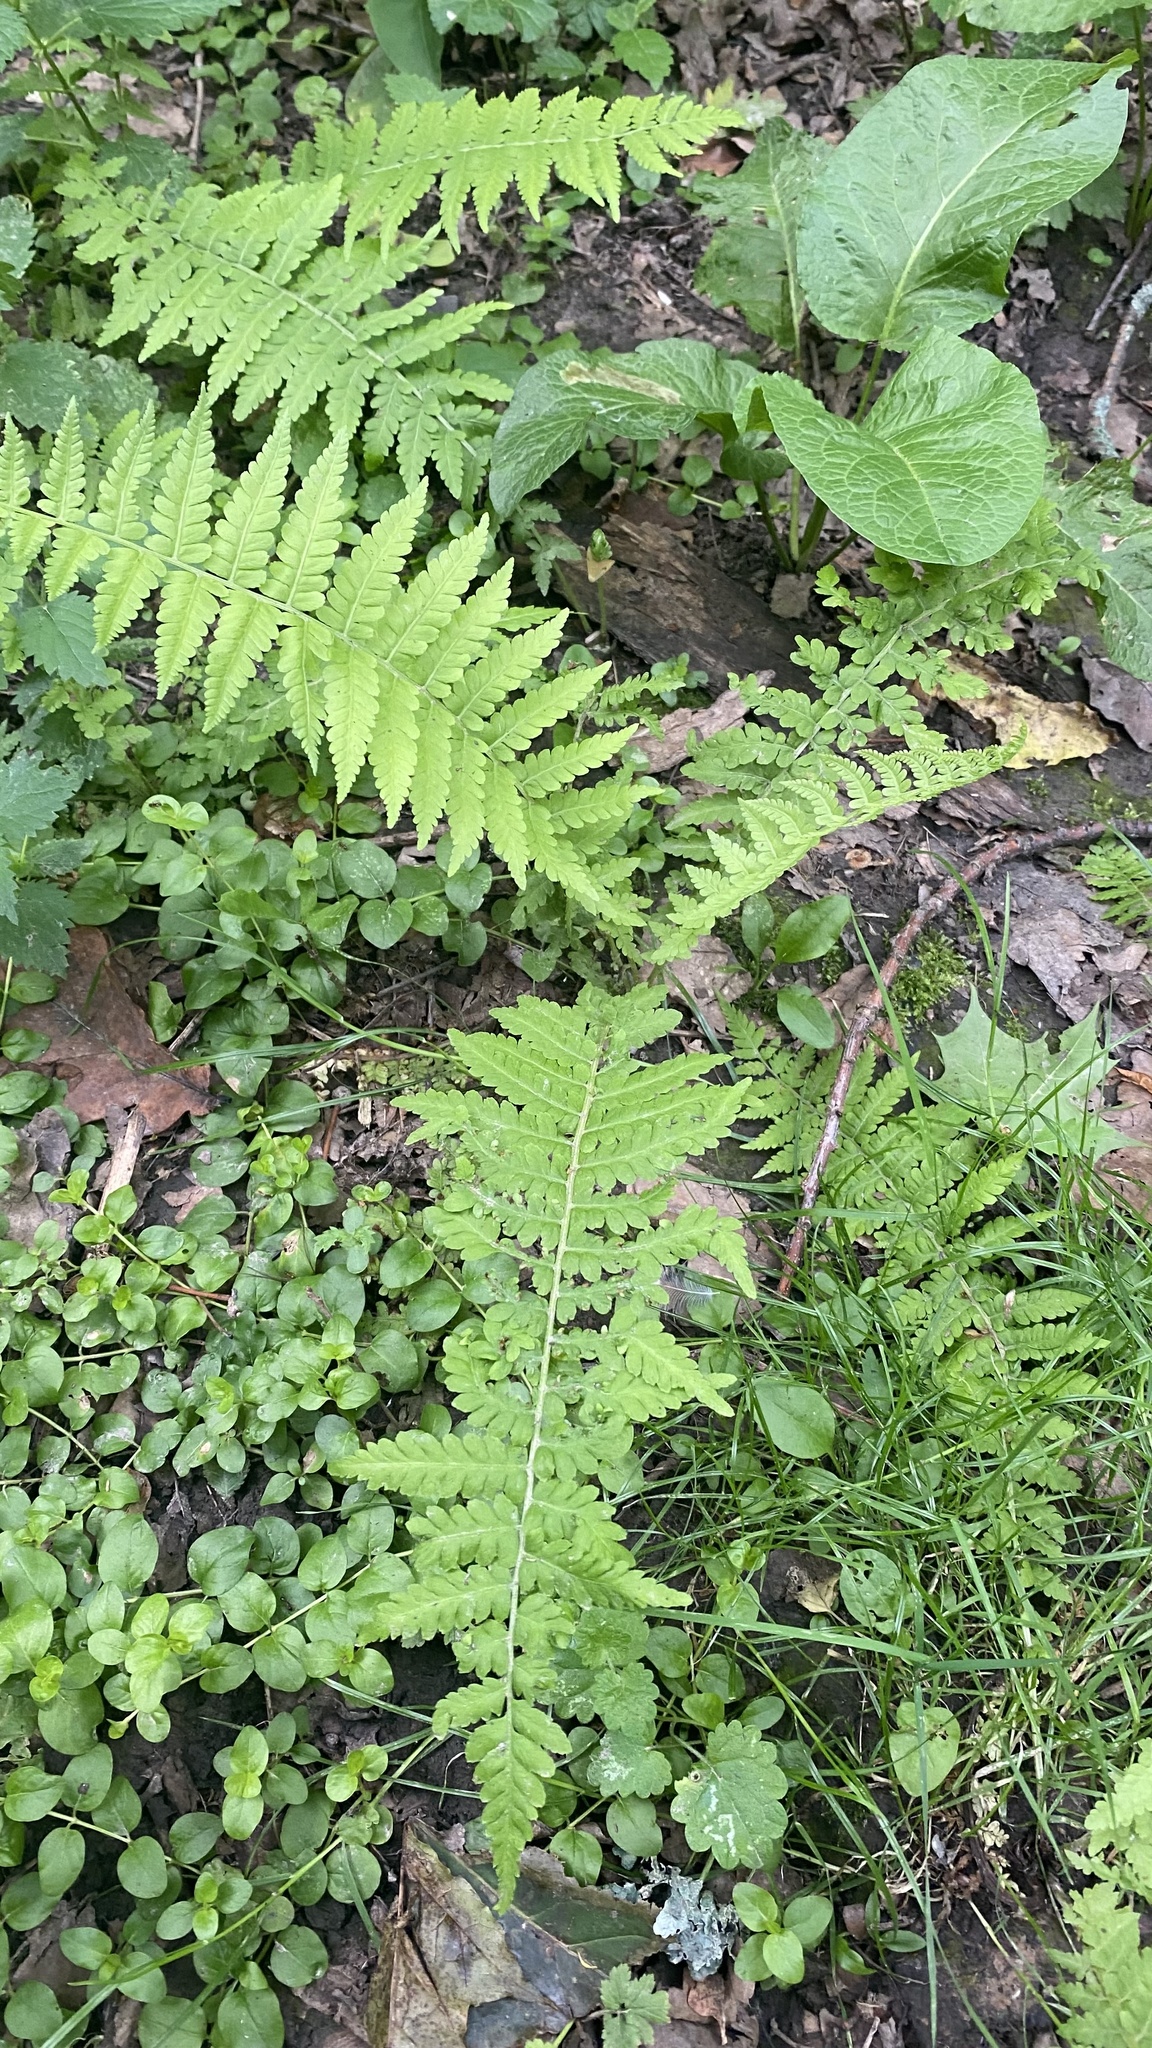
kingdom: Plantae
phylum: Tracheophyta
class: Polypodiopsida
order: Polypodiales
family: Dryopteridaceae
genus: Dryopteris
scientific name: Dryopteris filix-mas
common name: Male fern
